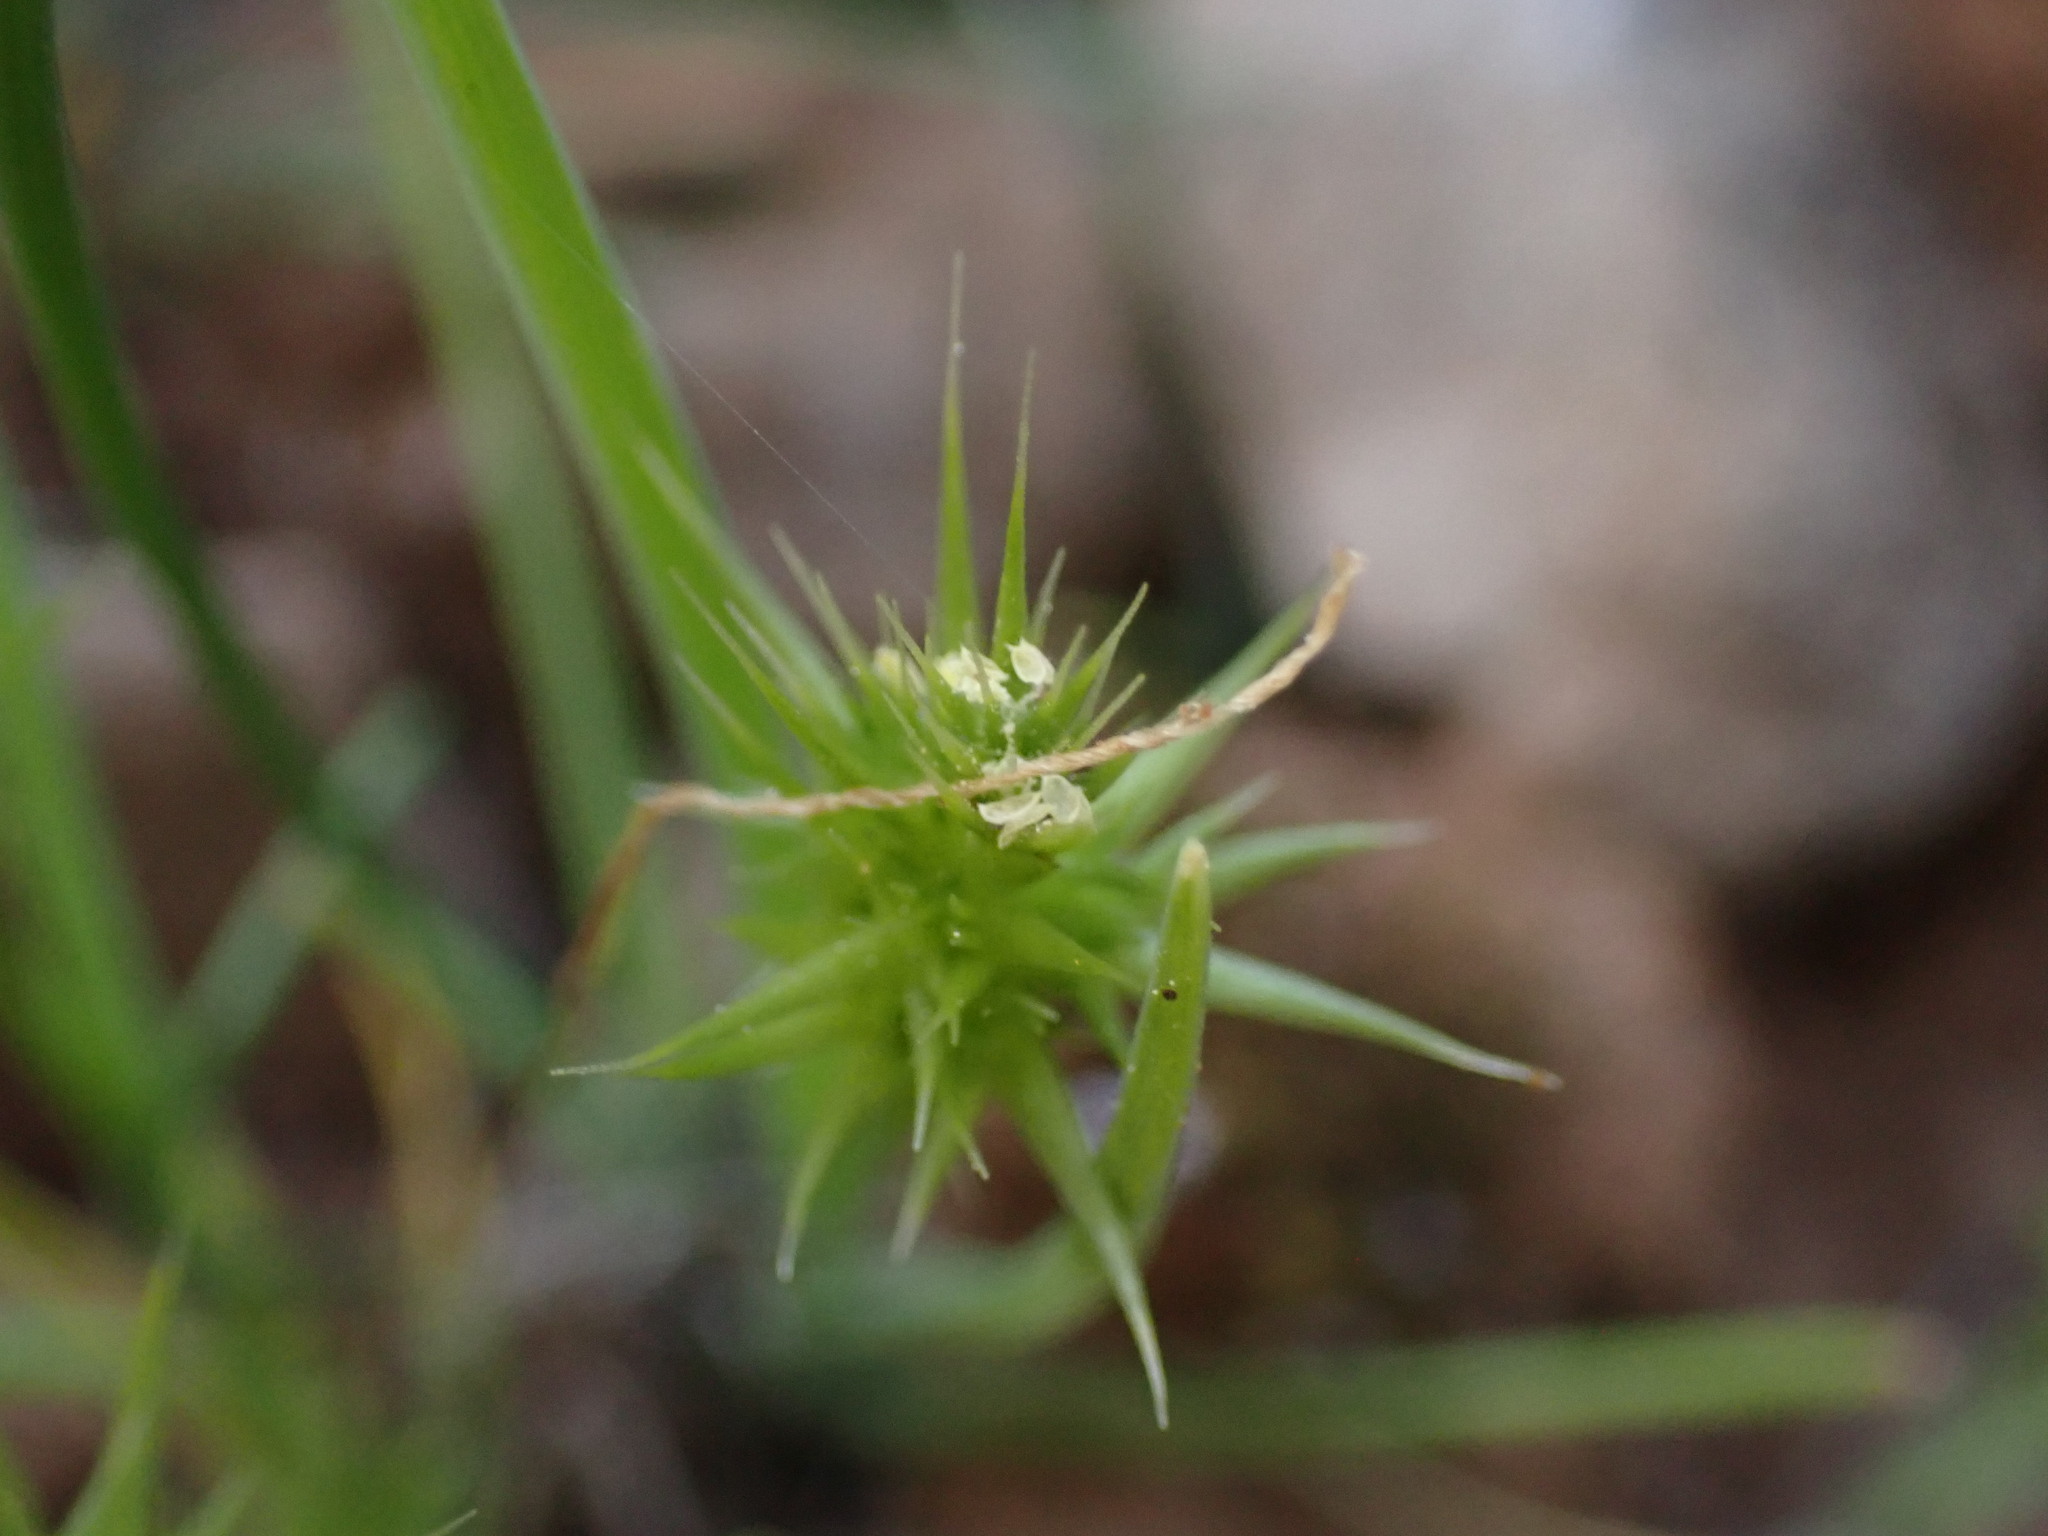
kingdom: Plantae
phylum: Tracheophyta
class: Liliopsida
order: Poales
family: Poaceae
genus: Echinaria
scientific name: Echinaria capitata
